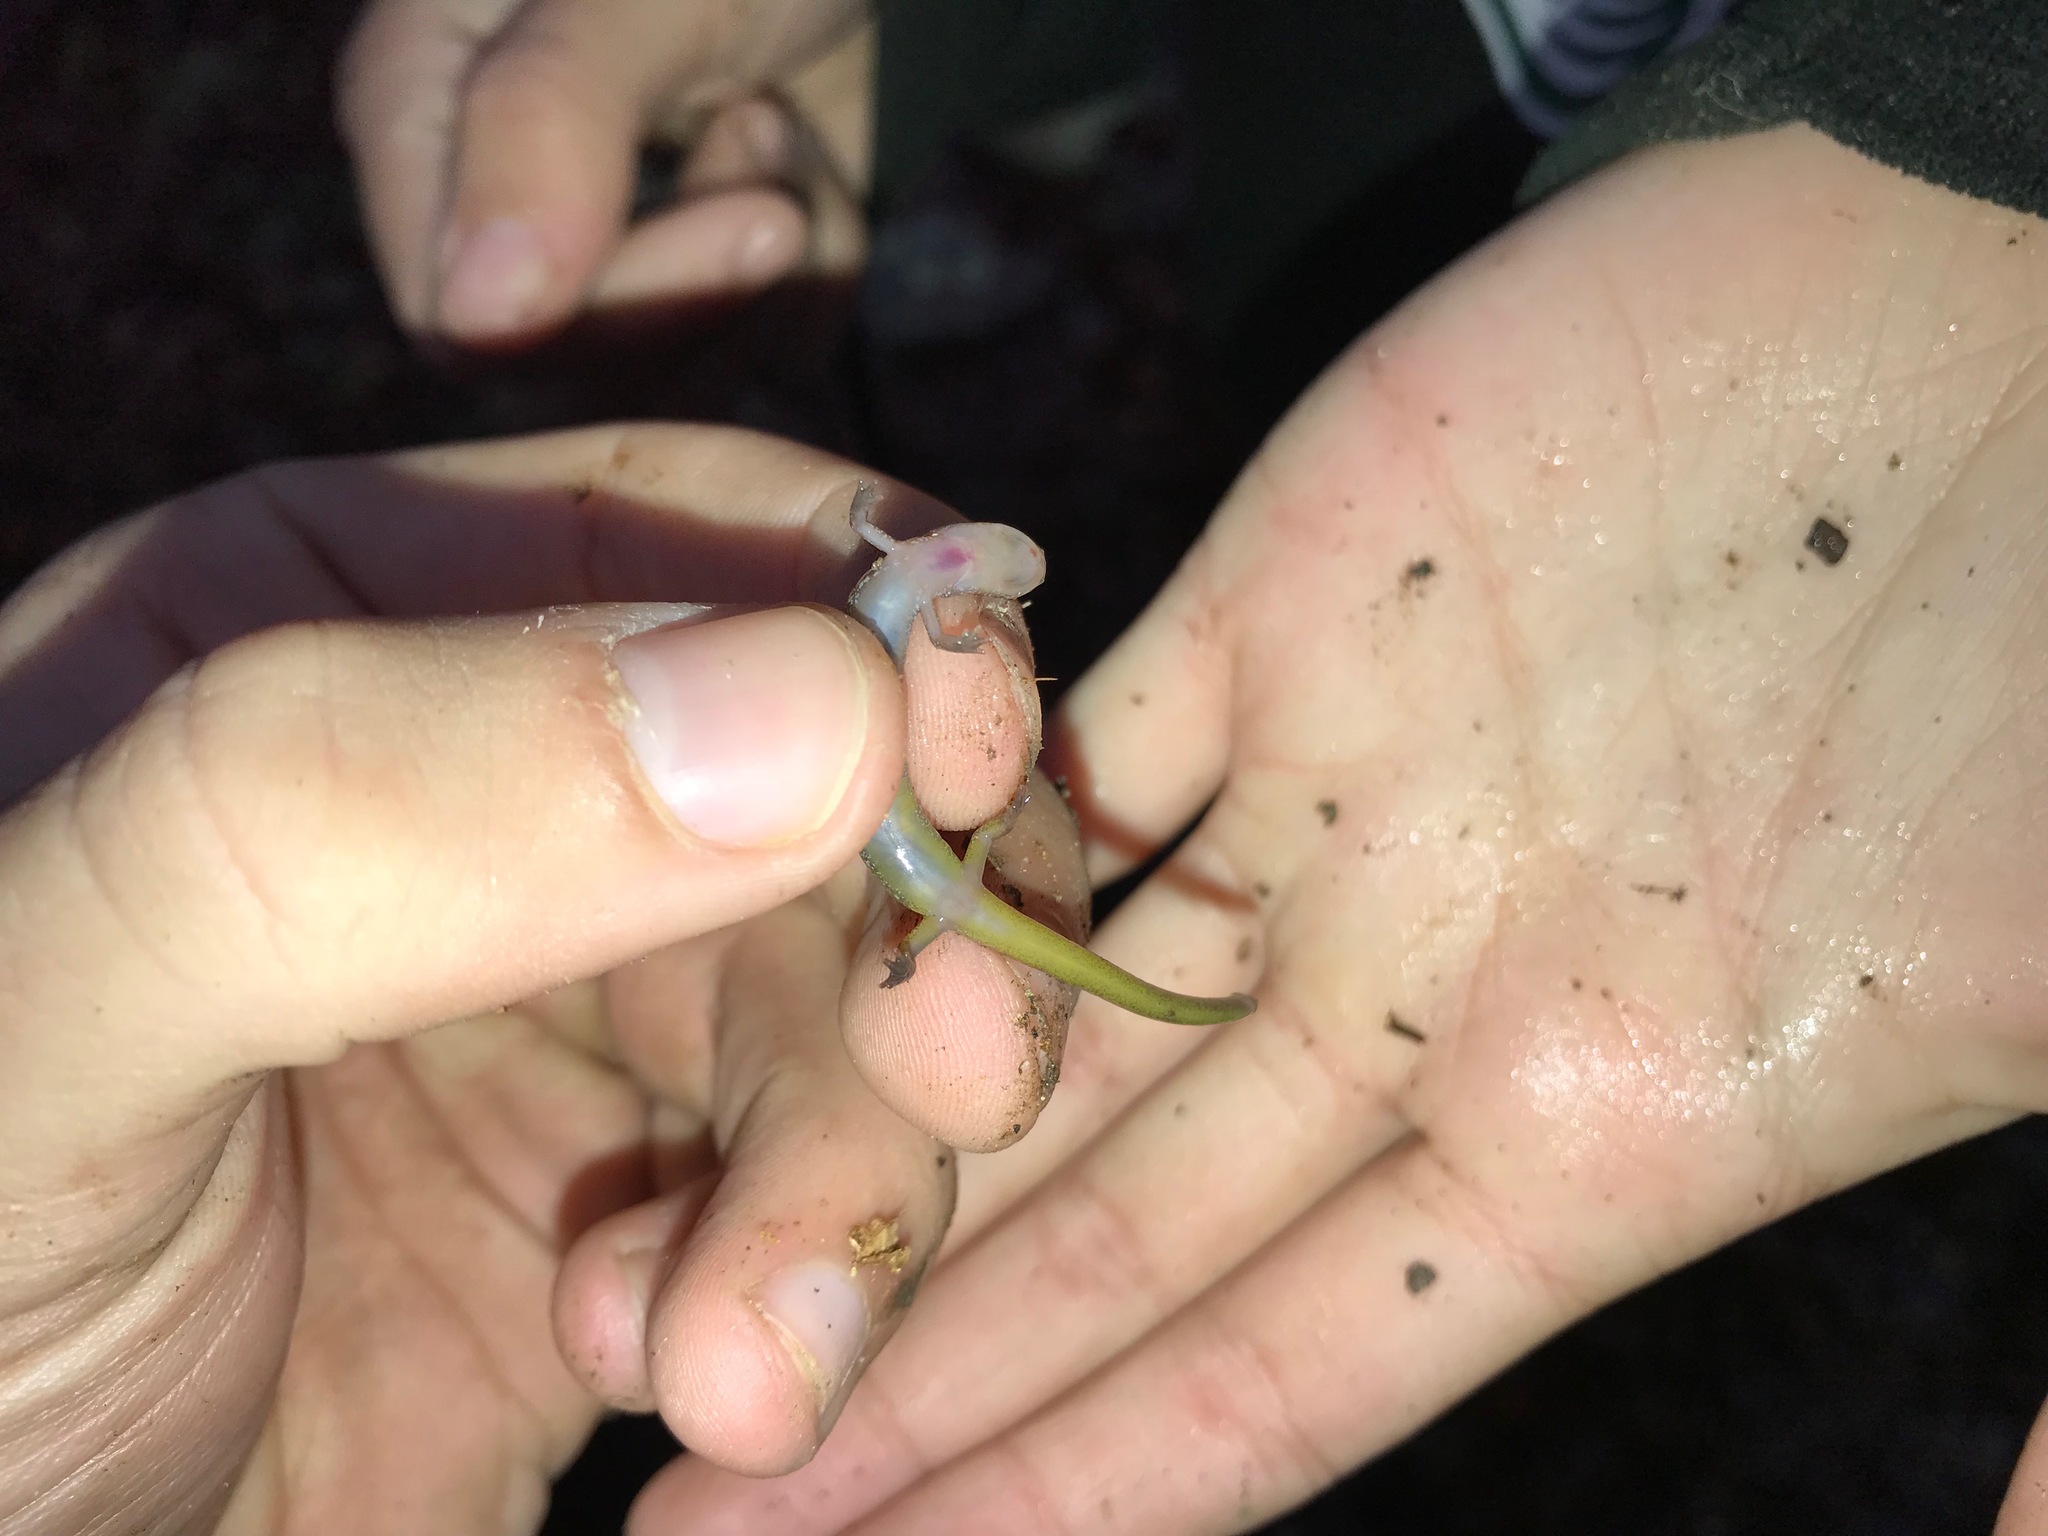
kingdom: Animalia
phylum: Chordata
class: Amphibia
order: Caudata
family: Plethodontidae
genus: Eurycea
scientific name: Eurycea multiplicata
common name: Many-ribbed salamander
